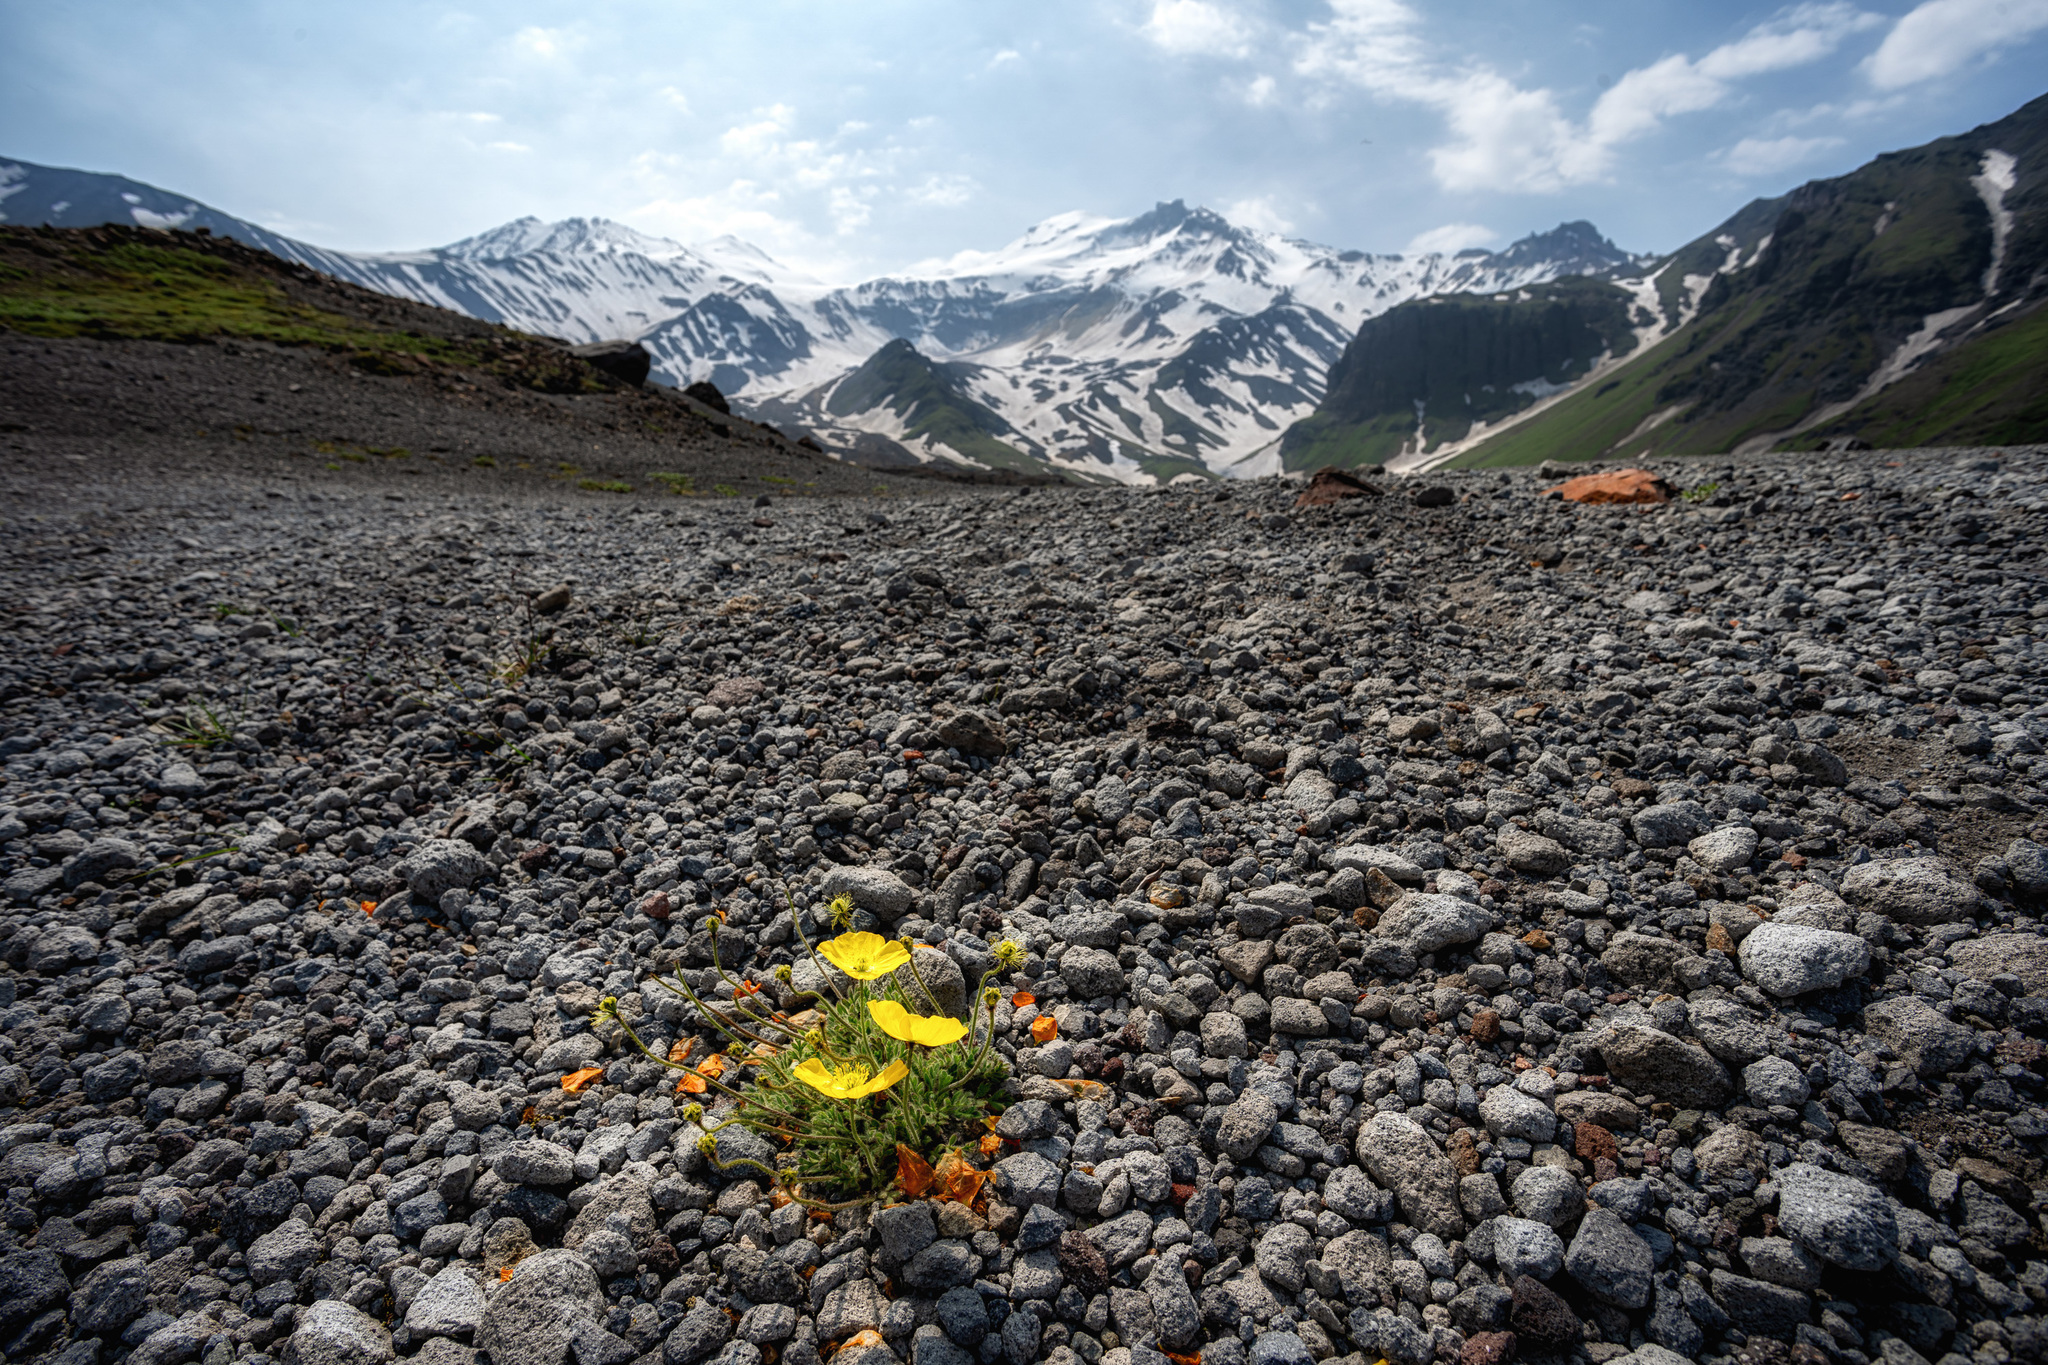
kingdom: Plantae
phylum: Tracheophyta
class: Magnoliopsida
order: Ranunculales
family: Papaveraceae
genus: Papaver
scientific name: Papaver microcarpum
